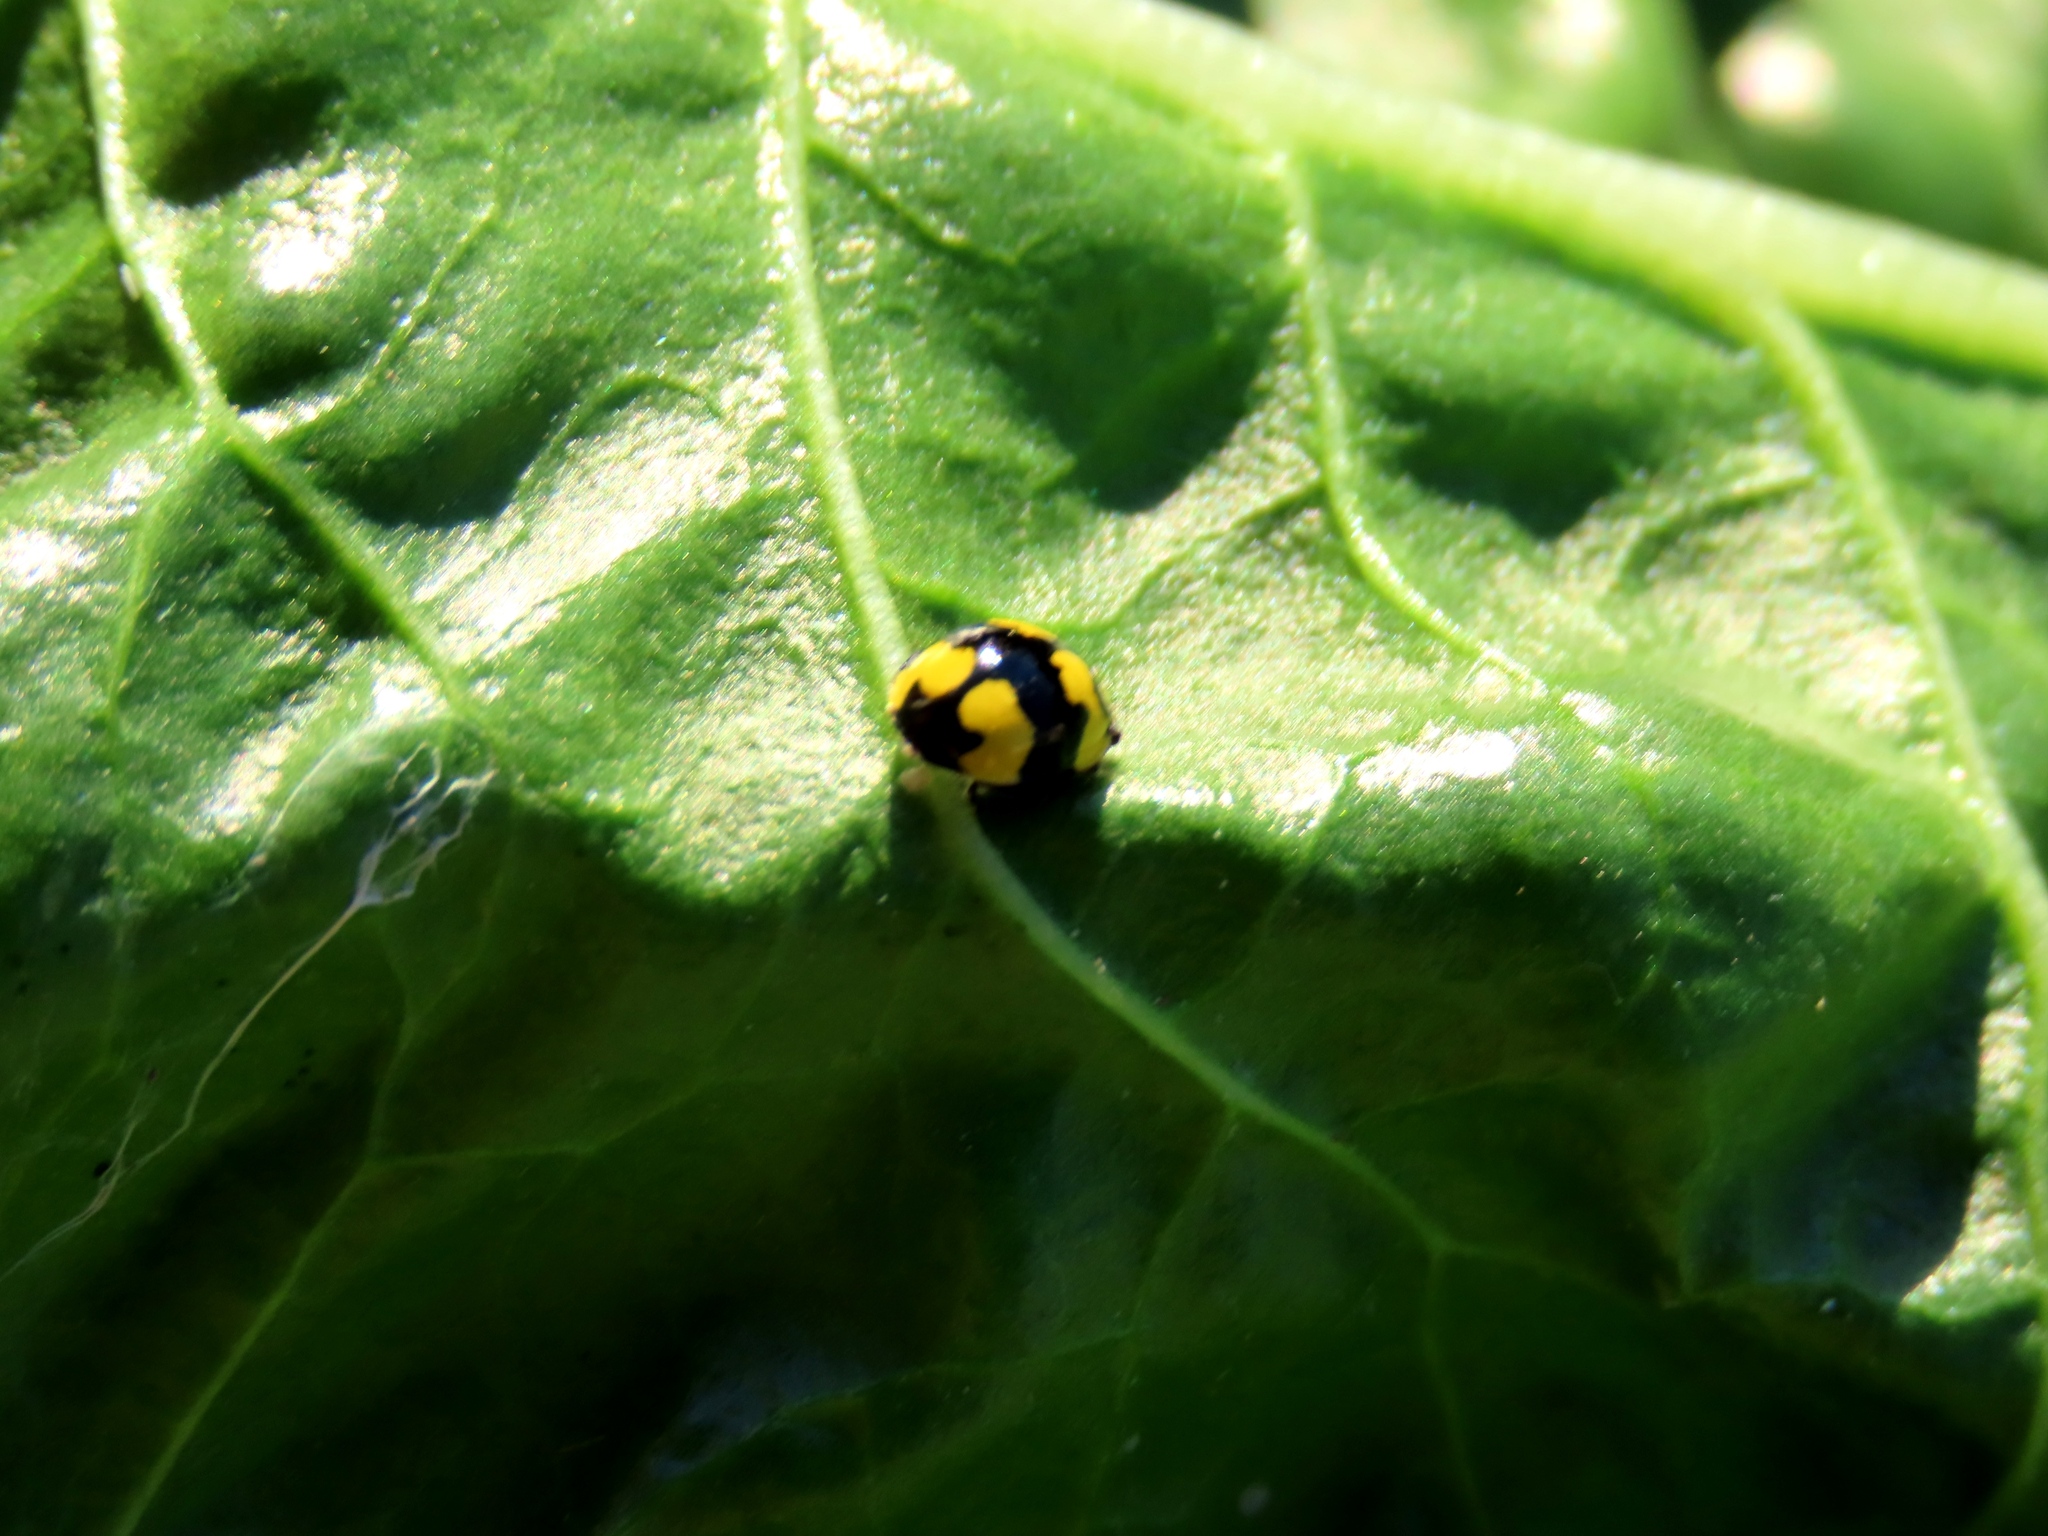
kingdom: Animalia
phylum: Arthropoda
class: Insecta
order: Coleoptera
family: Coccinellidae
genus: Illeis
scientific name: Illeis galbula
